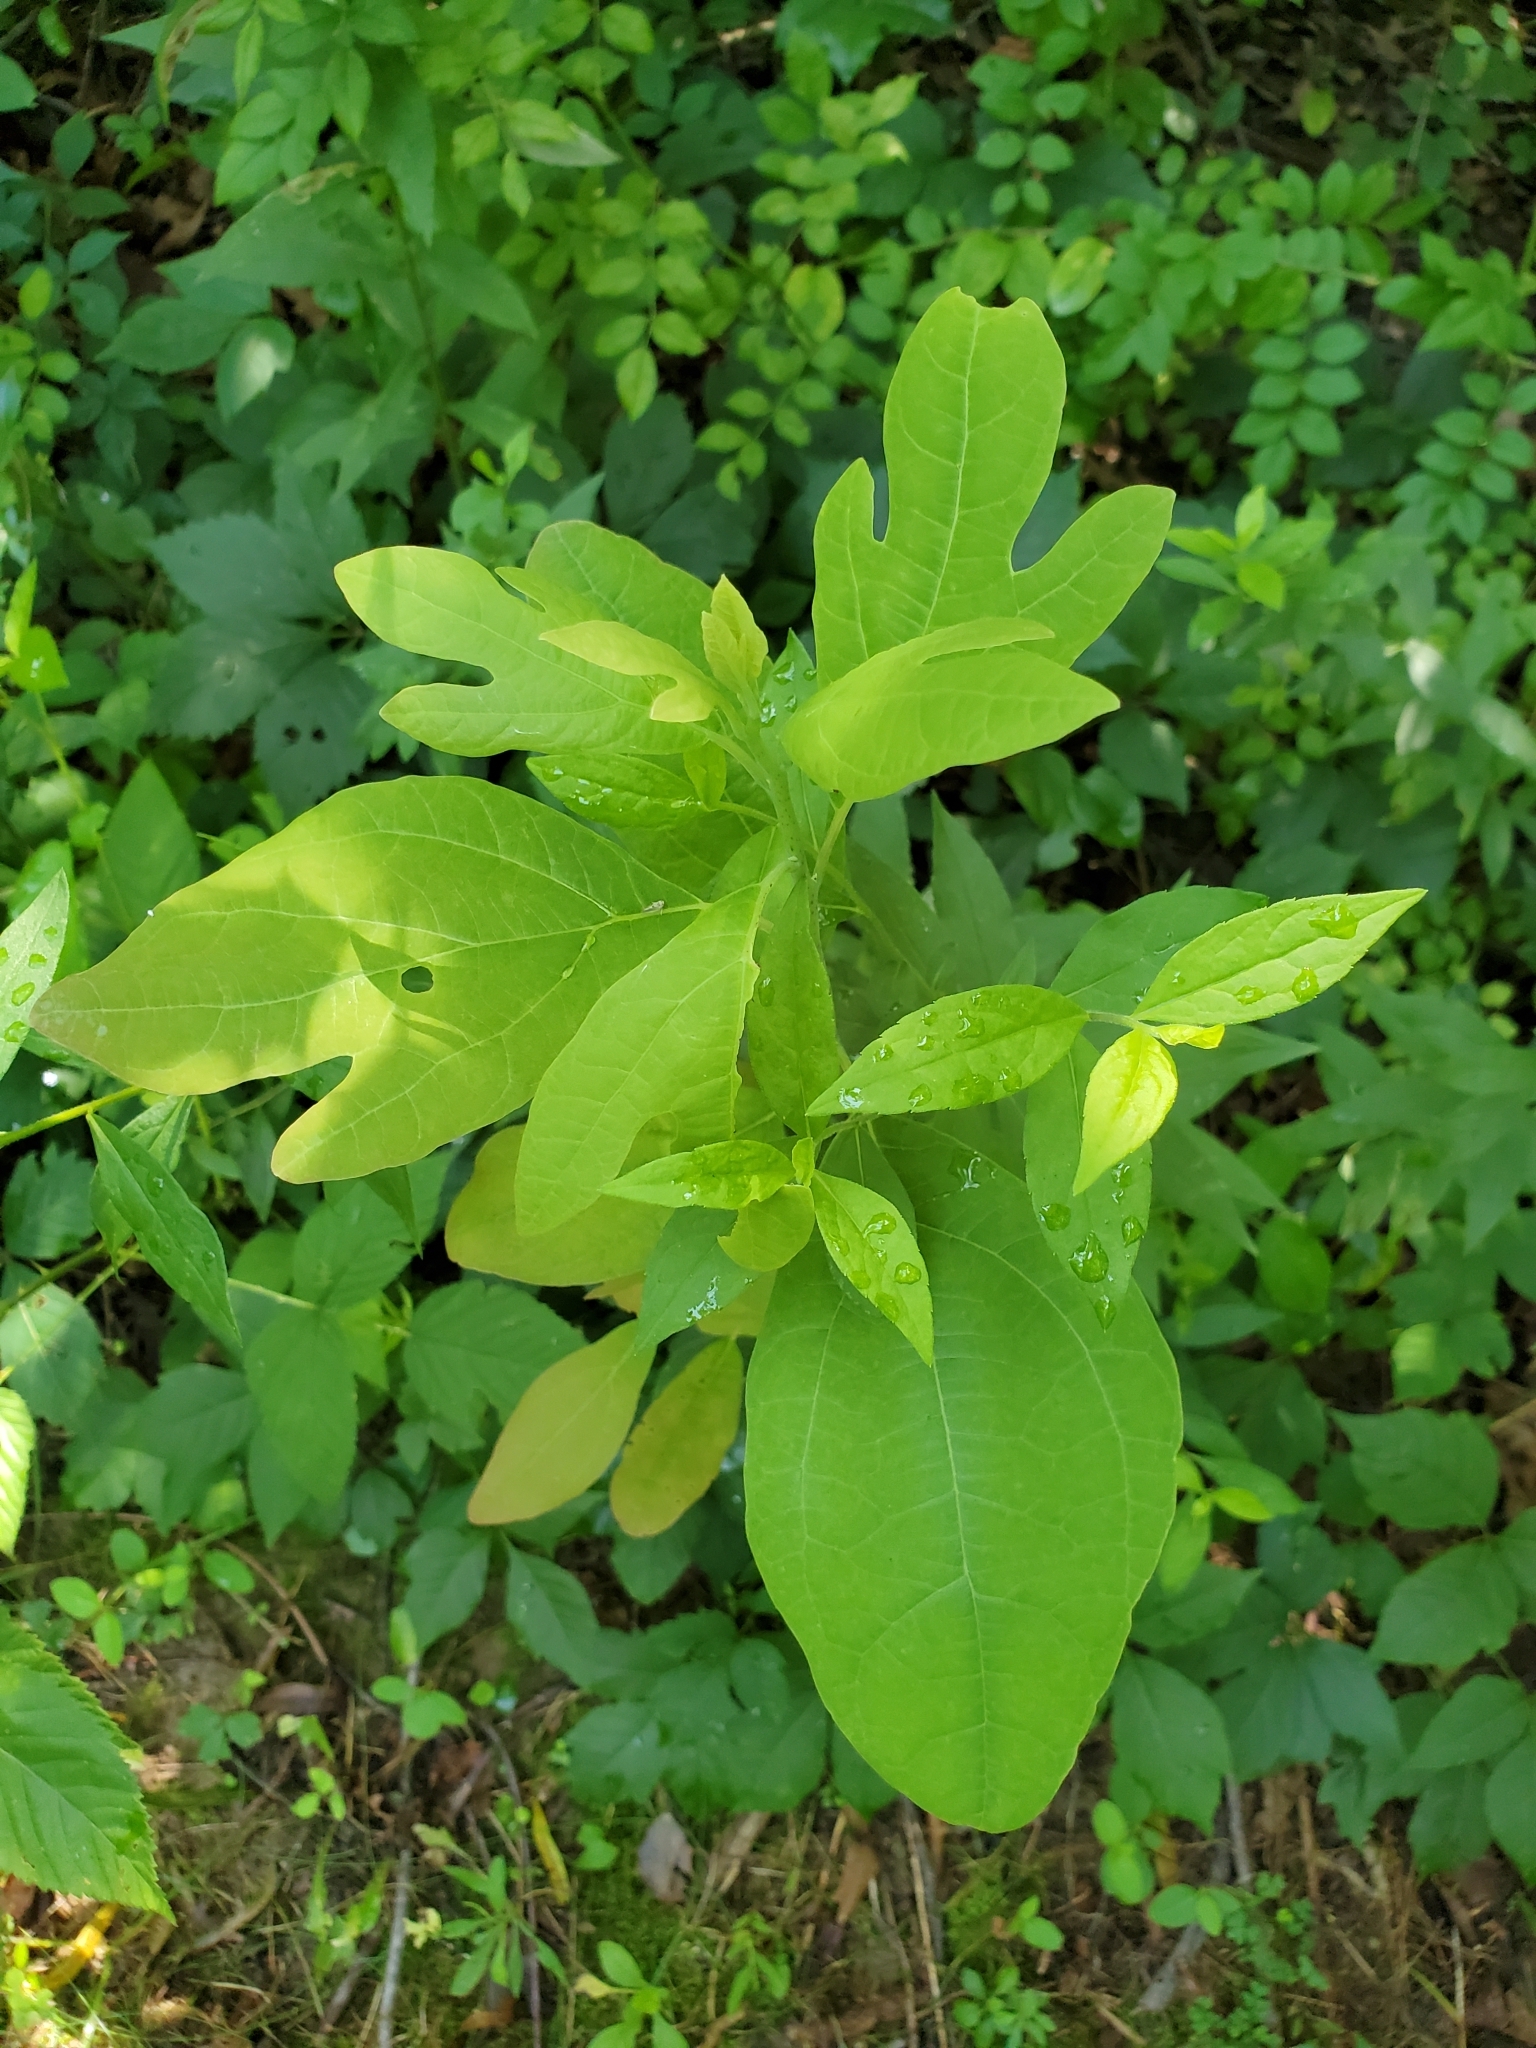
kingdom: Plantae
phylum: Tracheophyta
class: Magnoliopsida
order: Laurales
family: Lauraceae
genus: Sassafras
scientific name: Sassafras albidum
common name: Sassafras
